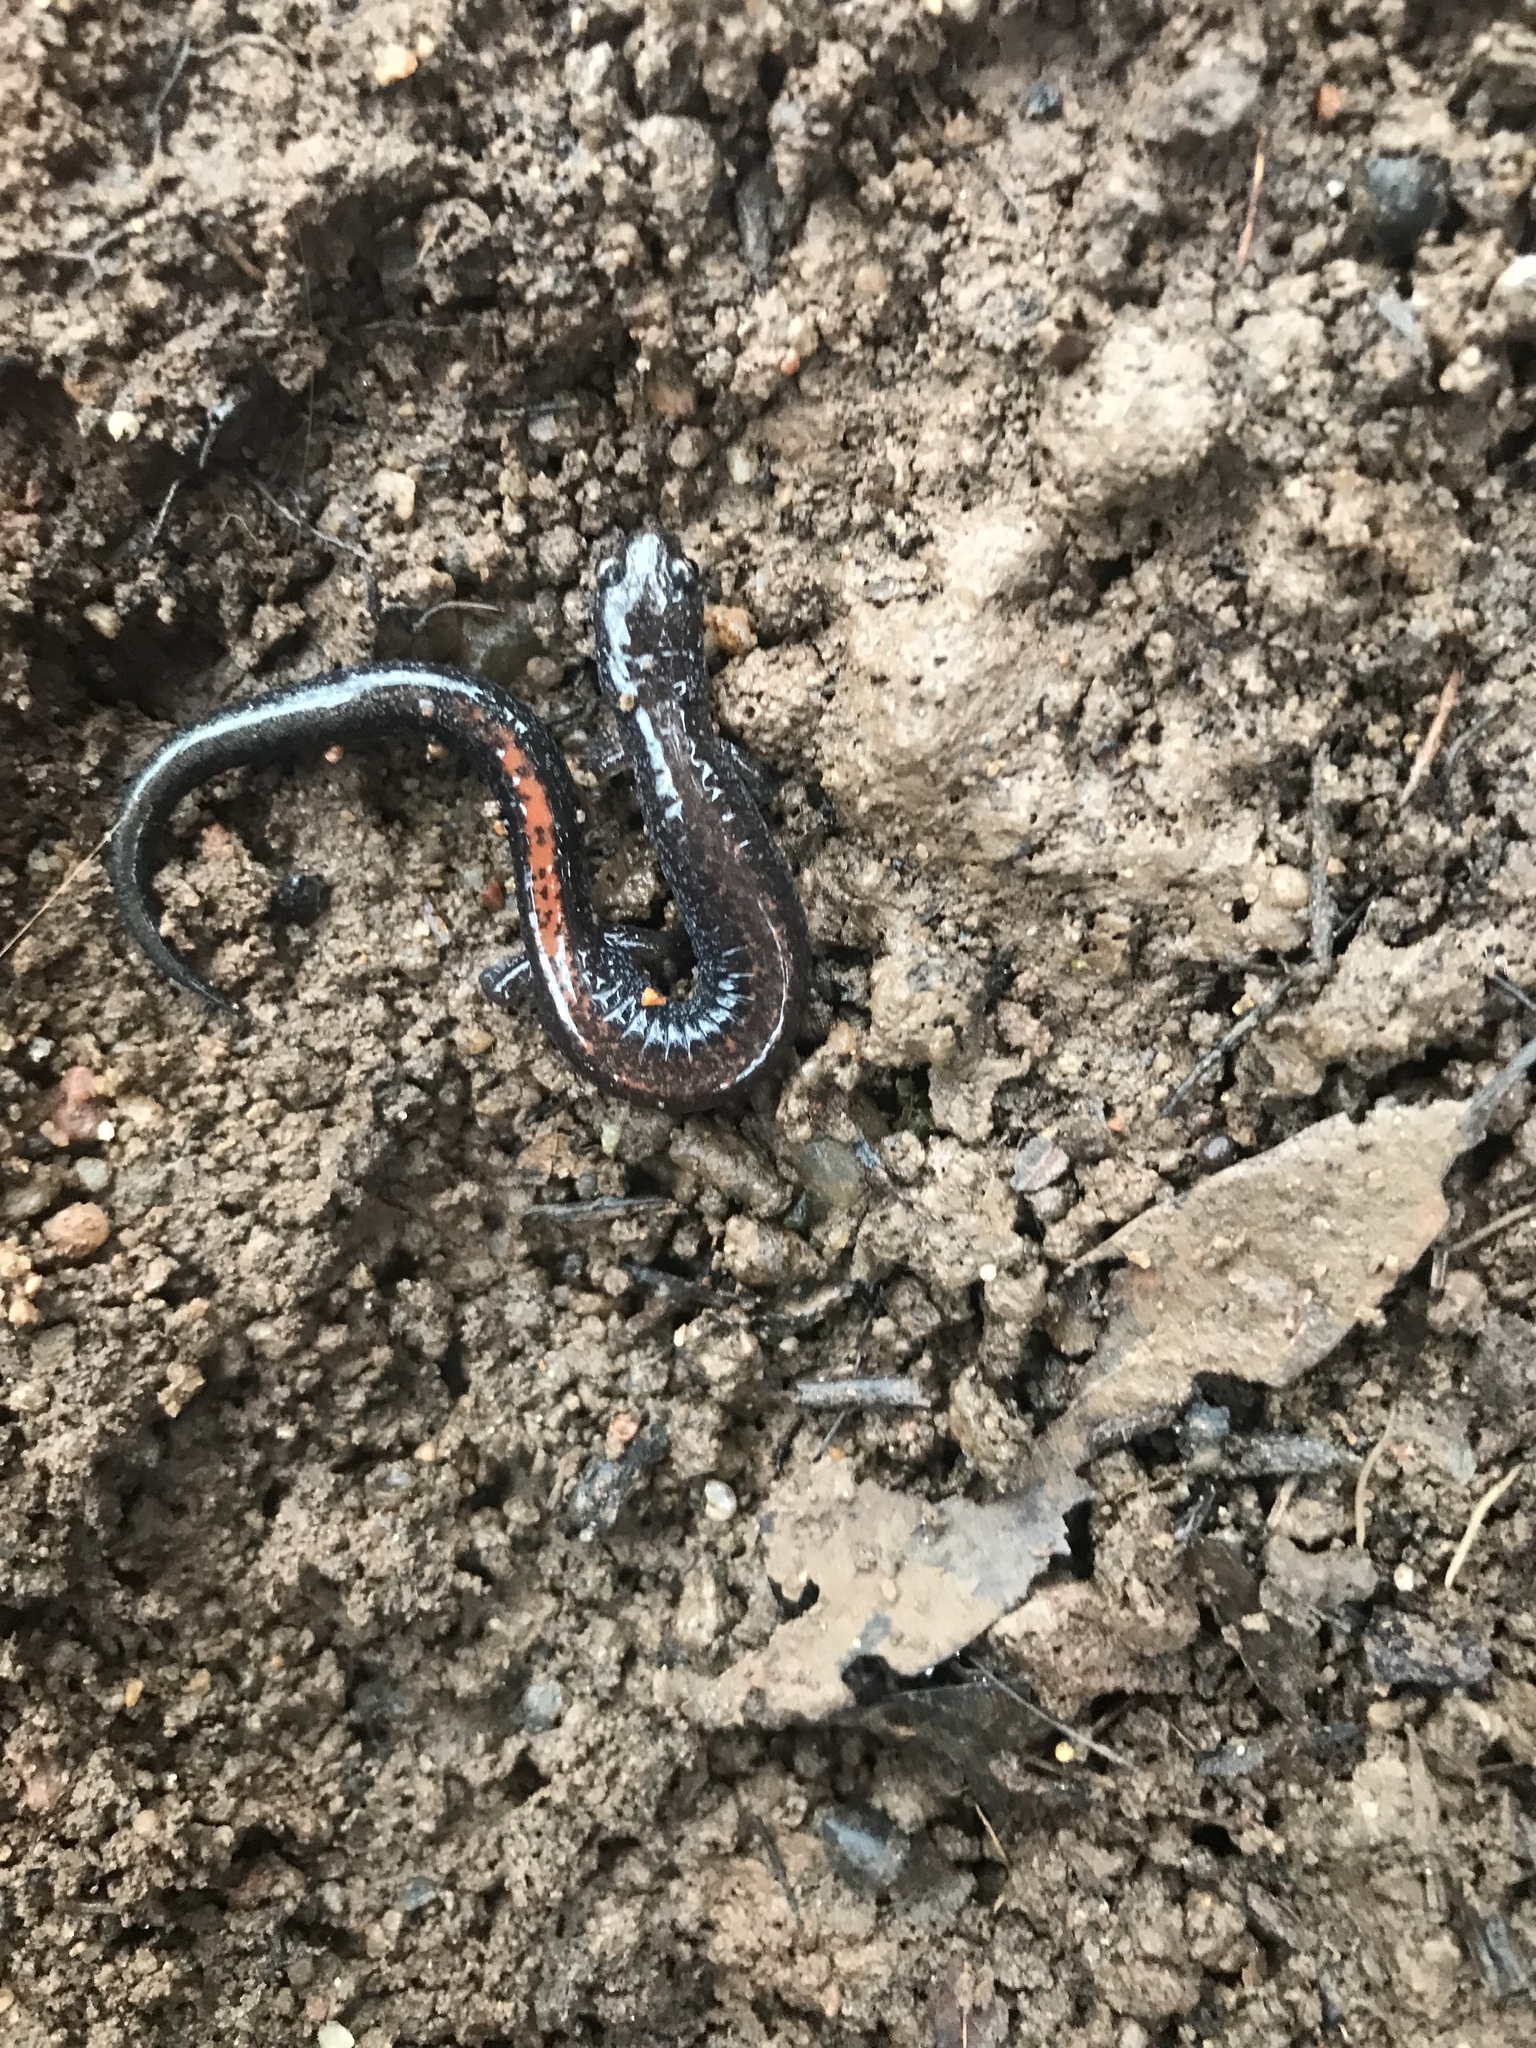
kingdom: Animalia
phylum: Chordata
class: Amphibia
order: Caudata
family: Plethodontidae
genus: Plethodon
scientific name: Plethodon cinereus
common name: Redback salamander
